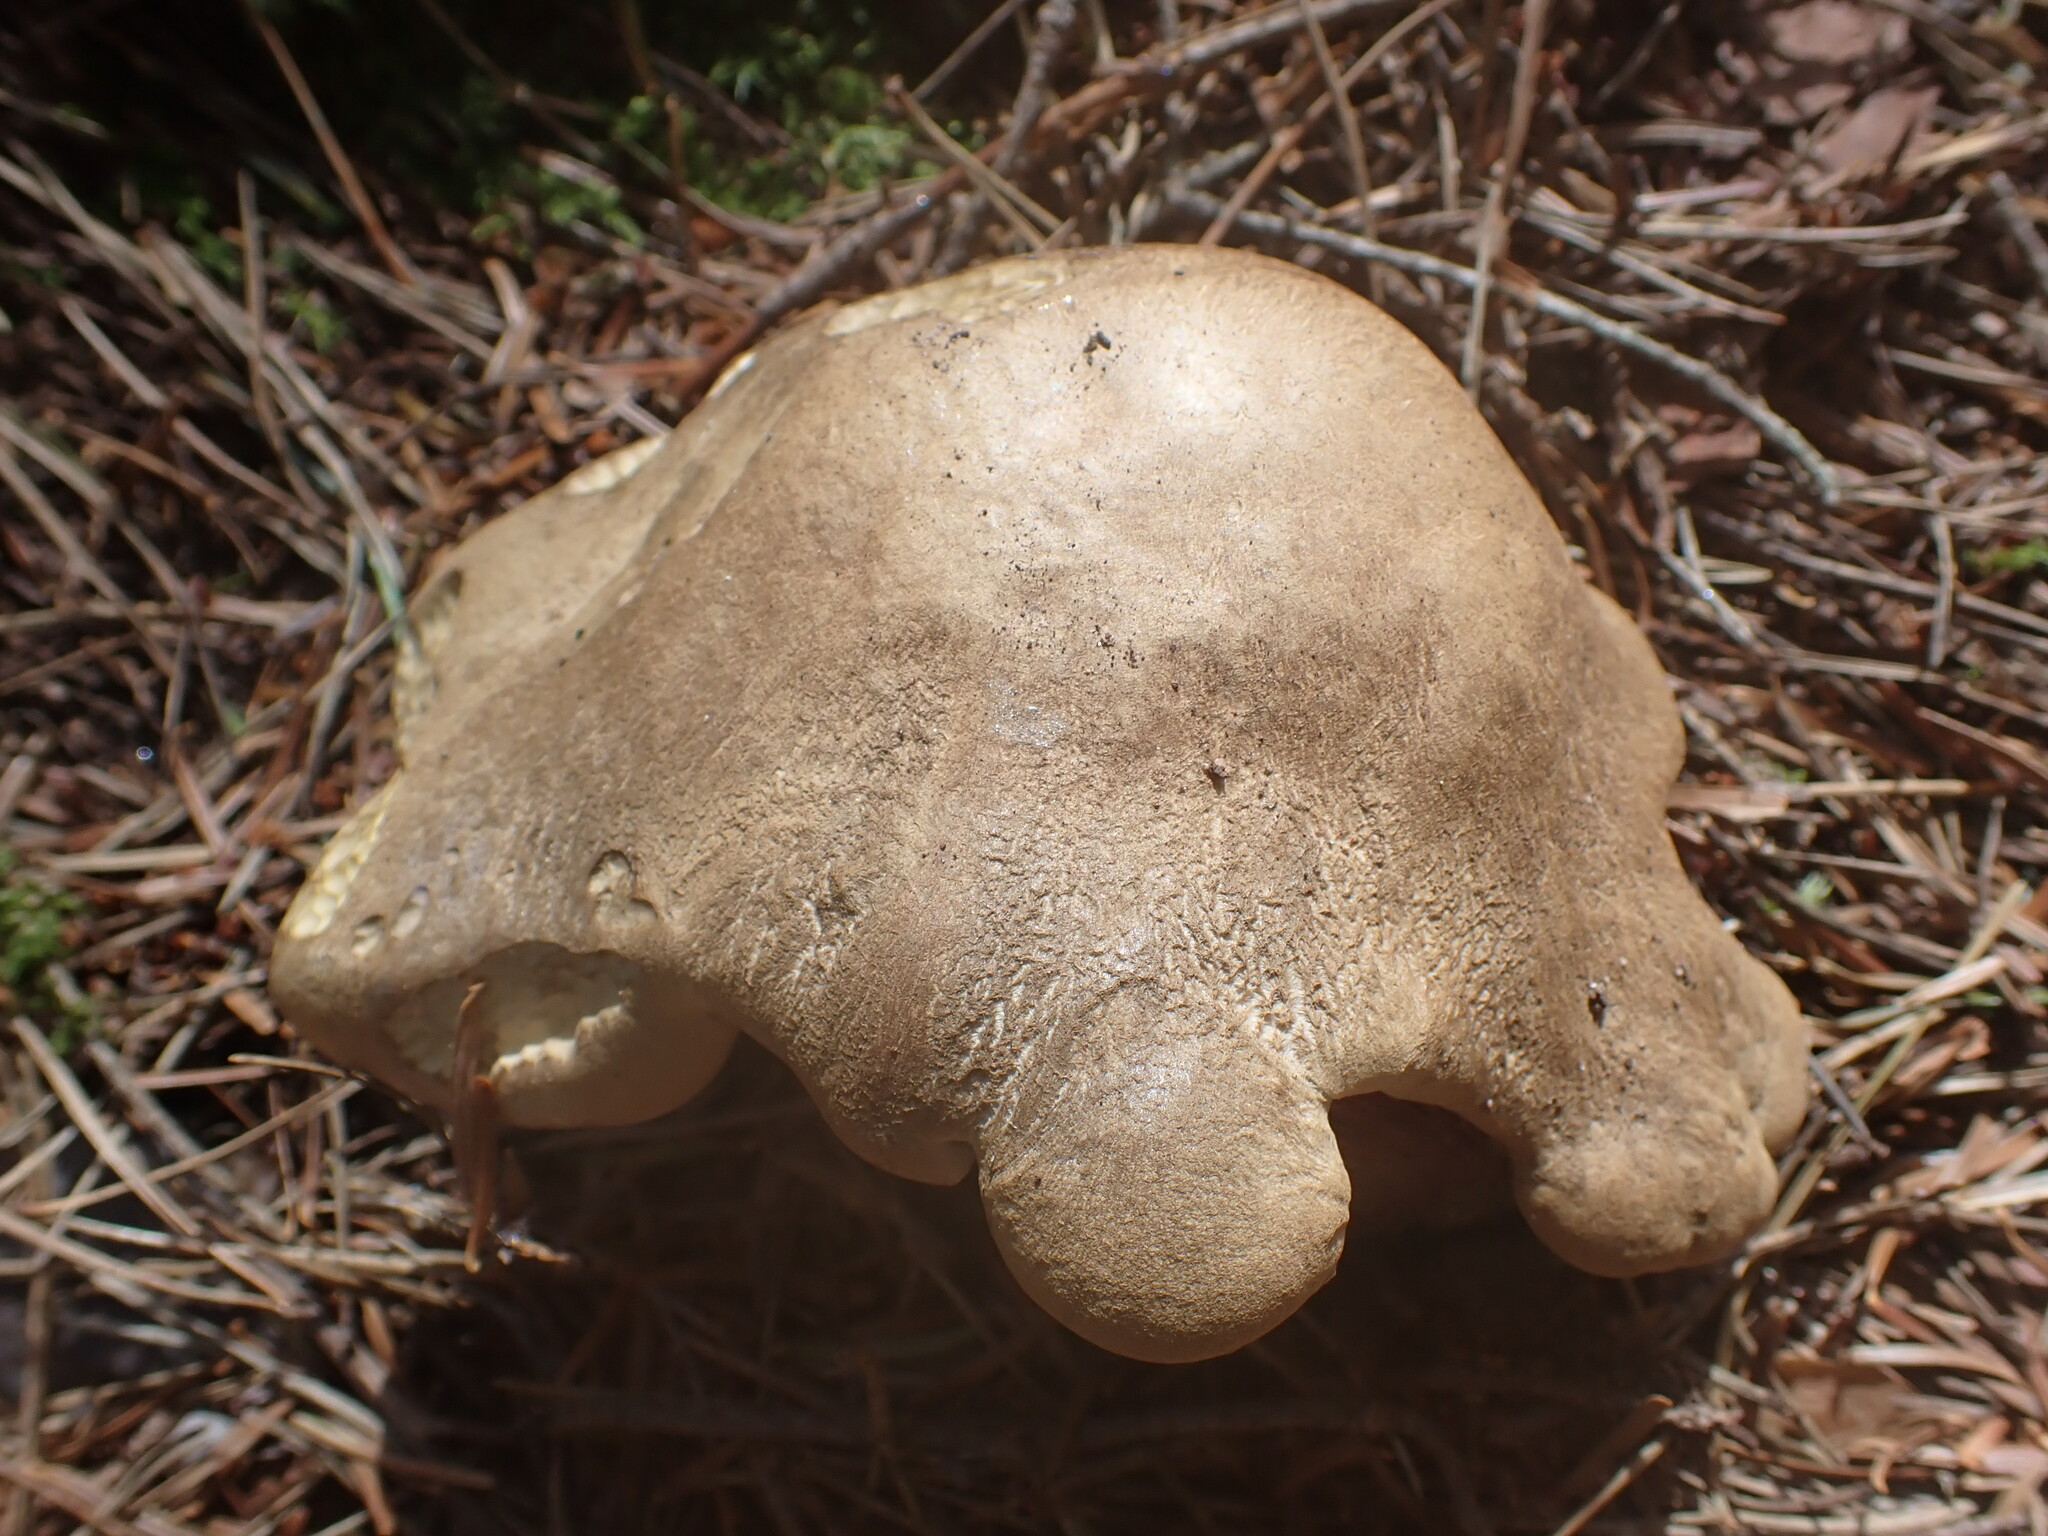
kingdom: Fungi
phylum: Basidiomycota
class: Agaricomycetes
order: Boletales
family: Boletaceae
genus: Caloboletus
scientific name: Caloboletus calopus
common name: Bitter beech bolete
